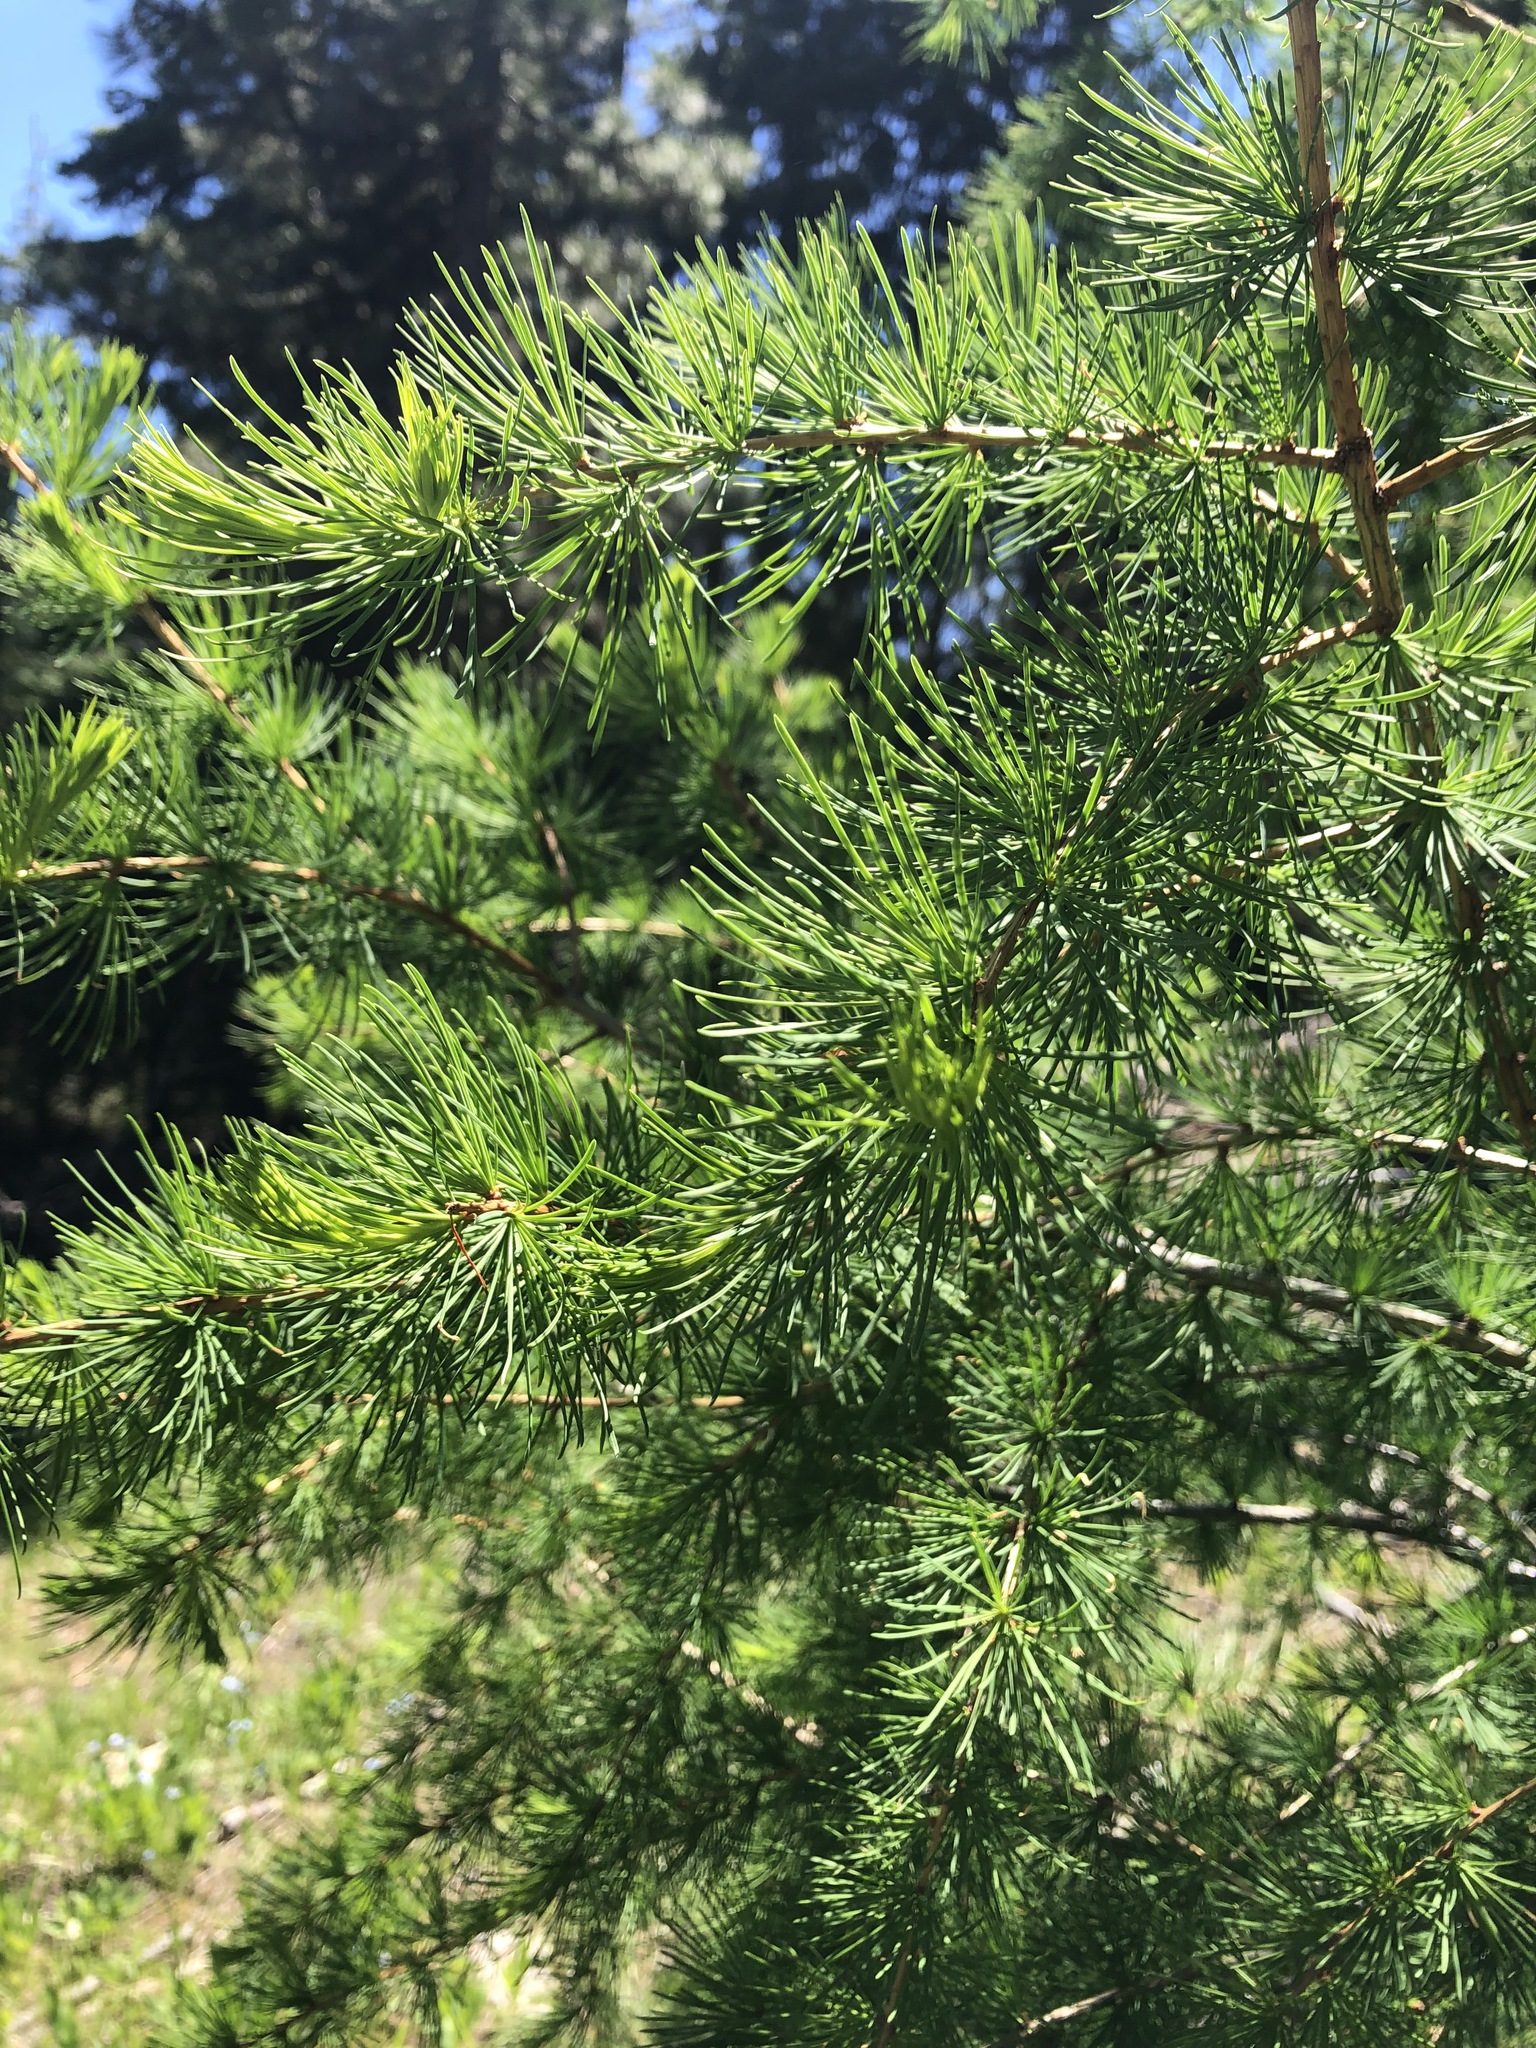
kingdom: Plantae
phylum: Tracheophyta
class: Pinopsida
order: Pinales
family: Pinaceae
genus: Larix
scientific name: Larix occidentalis
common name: Western larch
